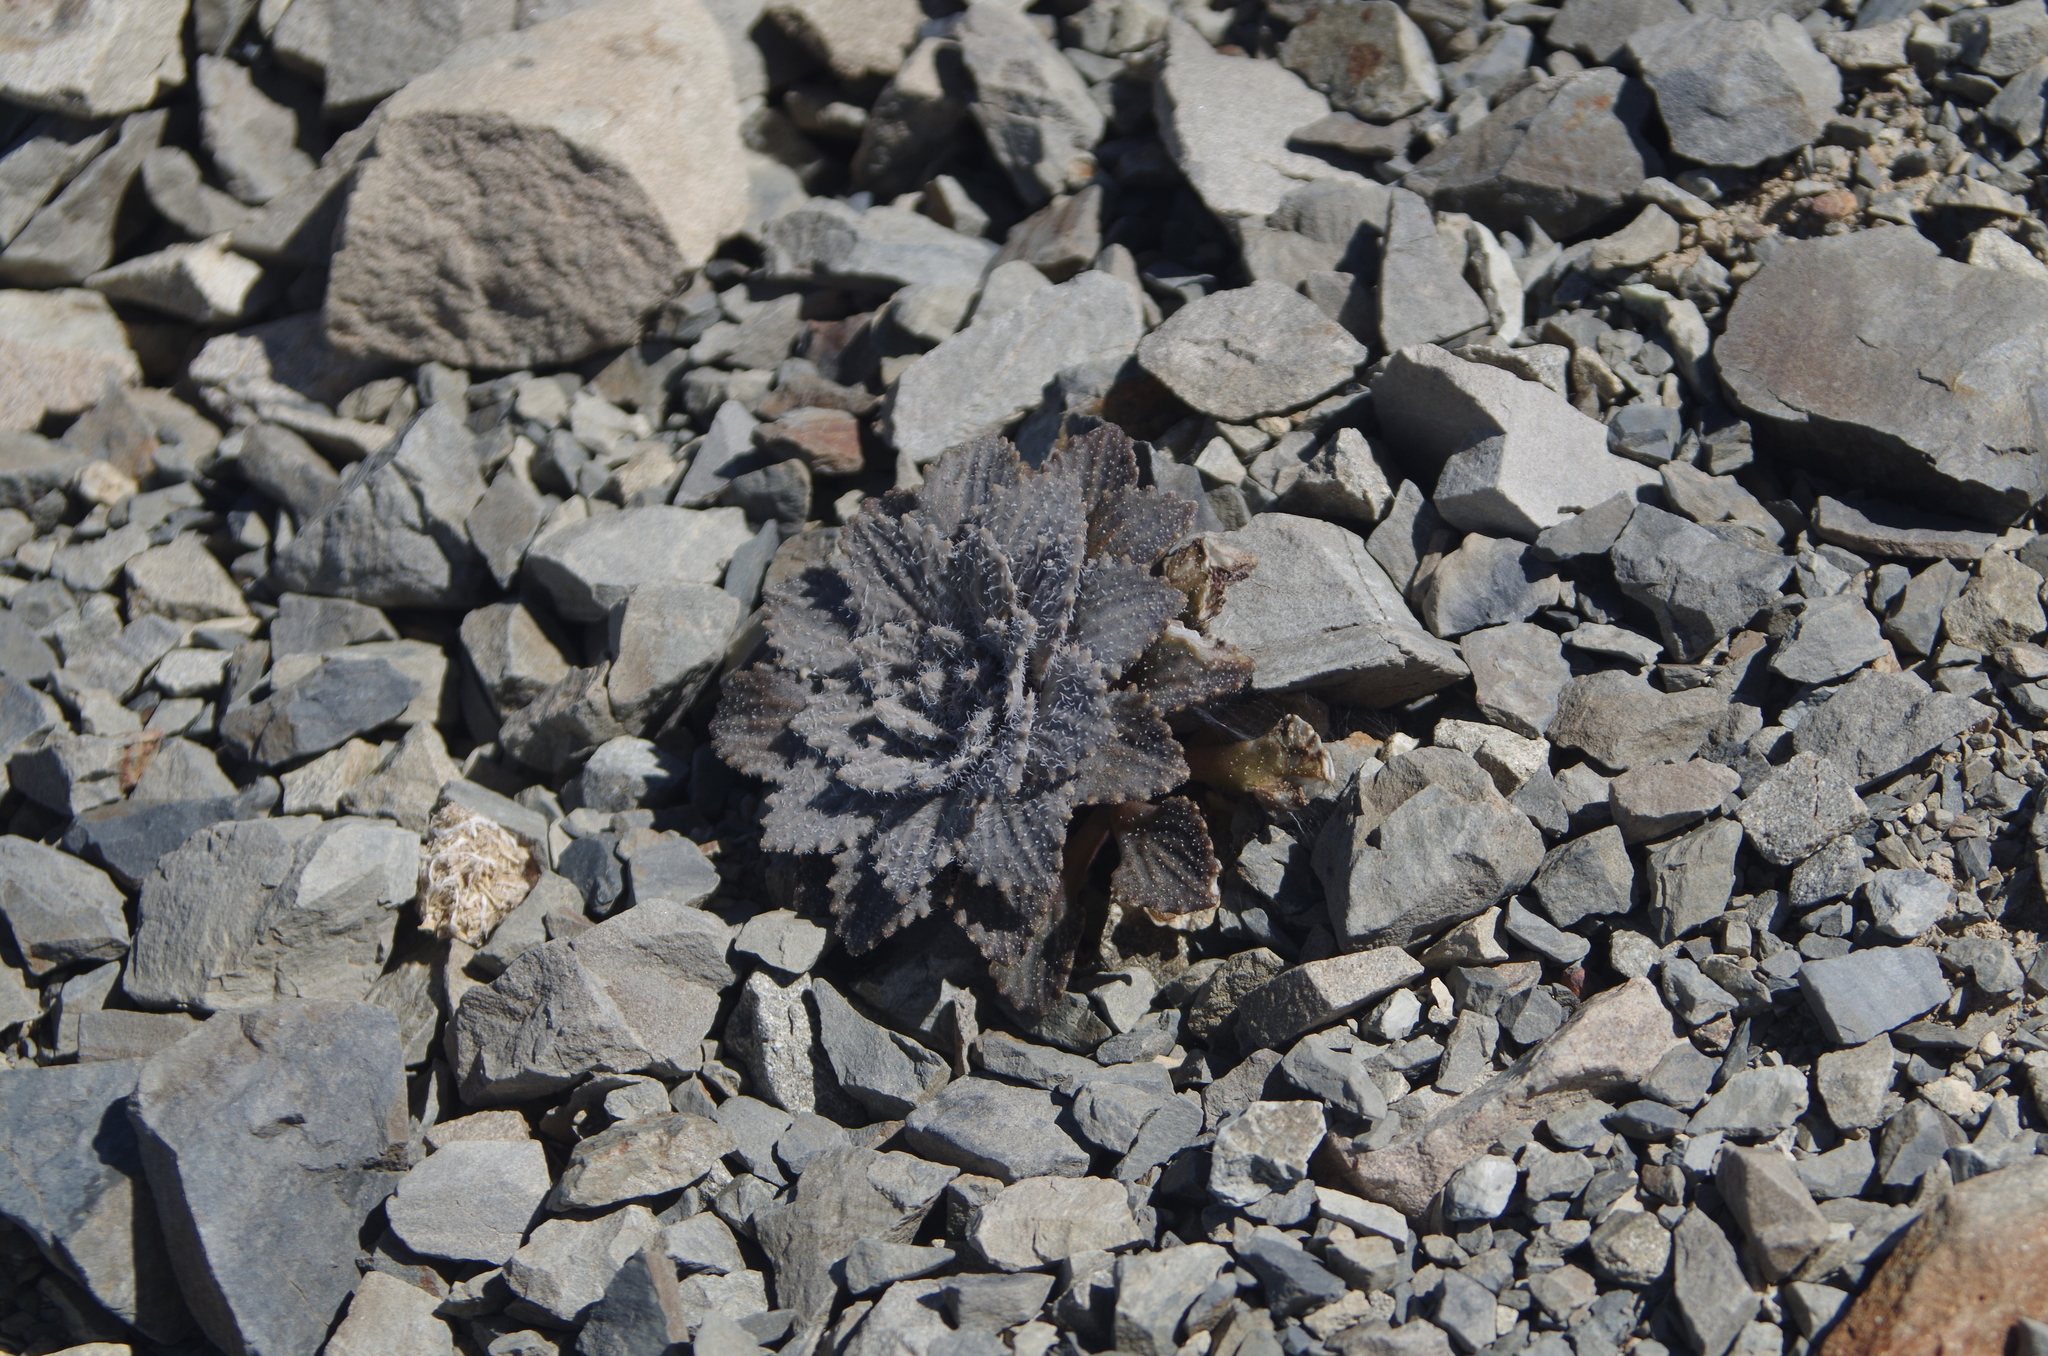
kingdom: Plantae
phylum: Tracheophyta
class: Magnoliopsida
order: Brassicales
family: Brassicaceae
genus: Notothlaspi
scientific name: Notothlaspi rosulatum
